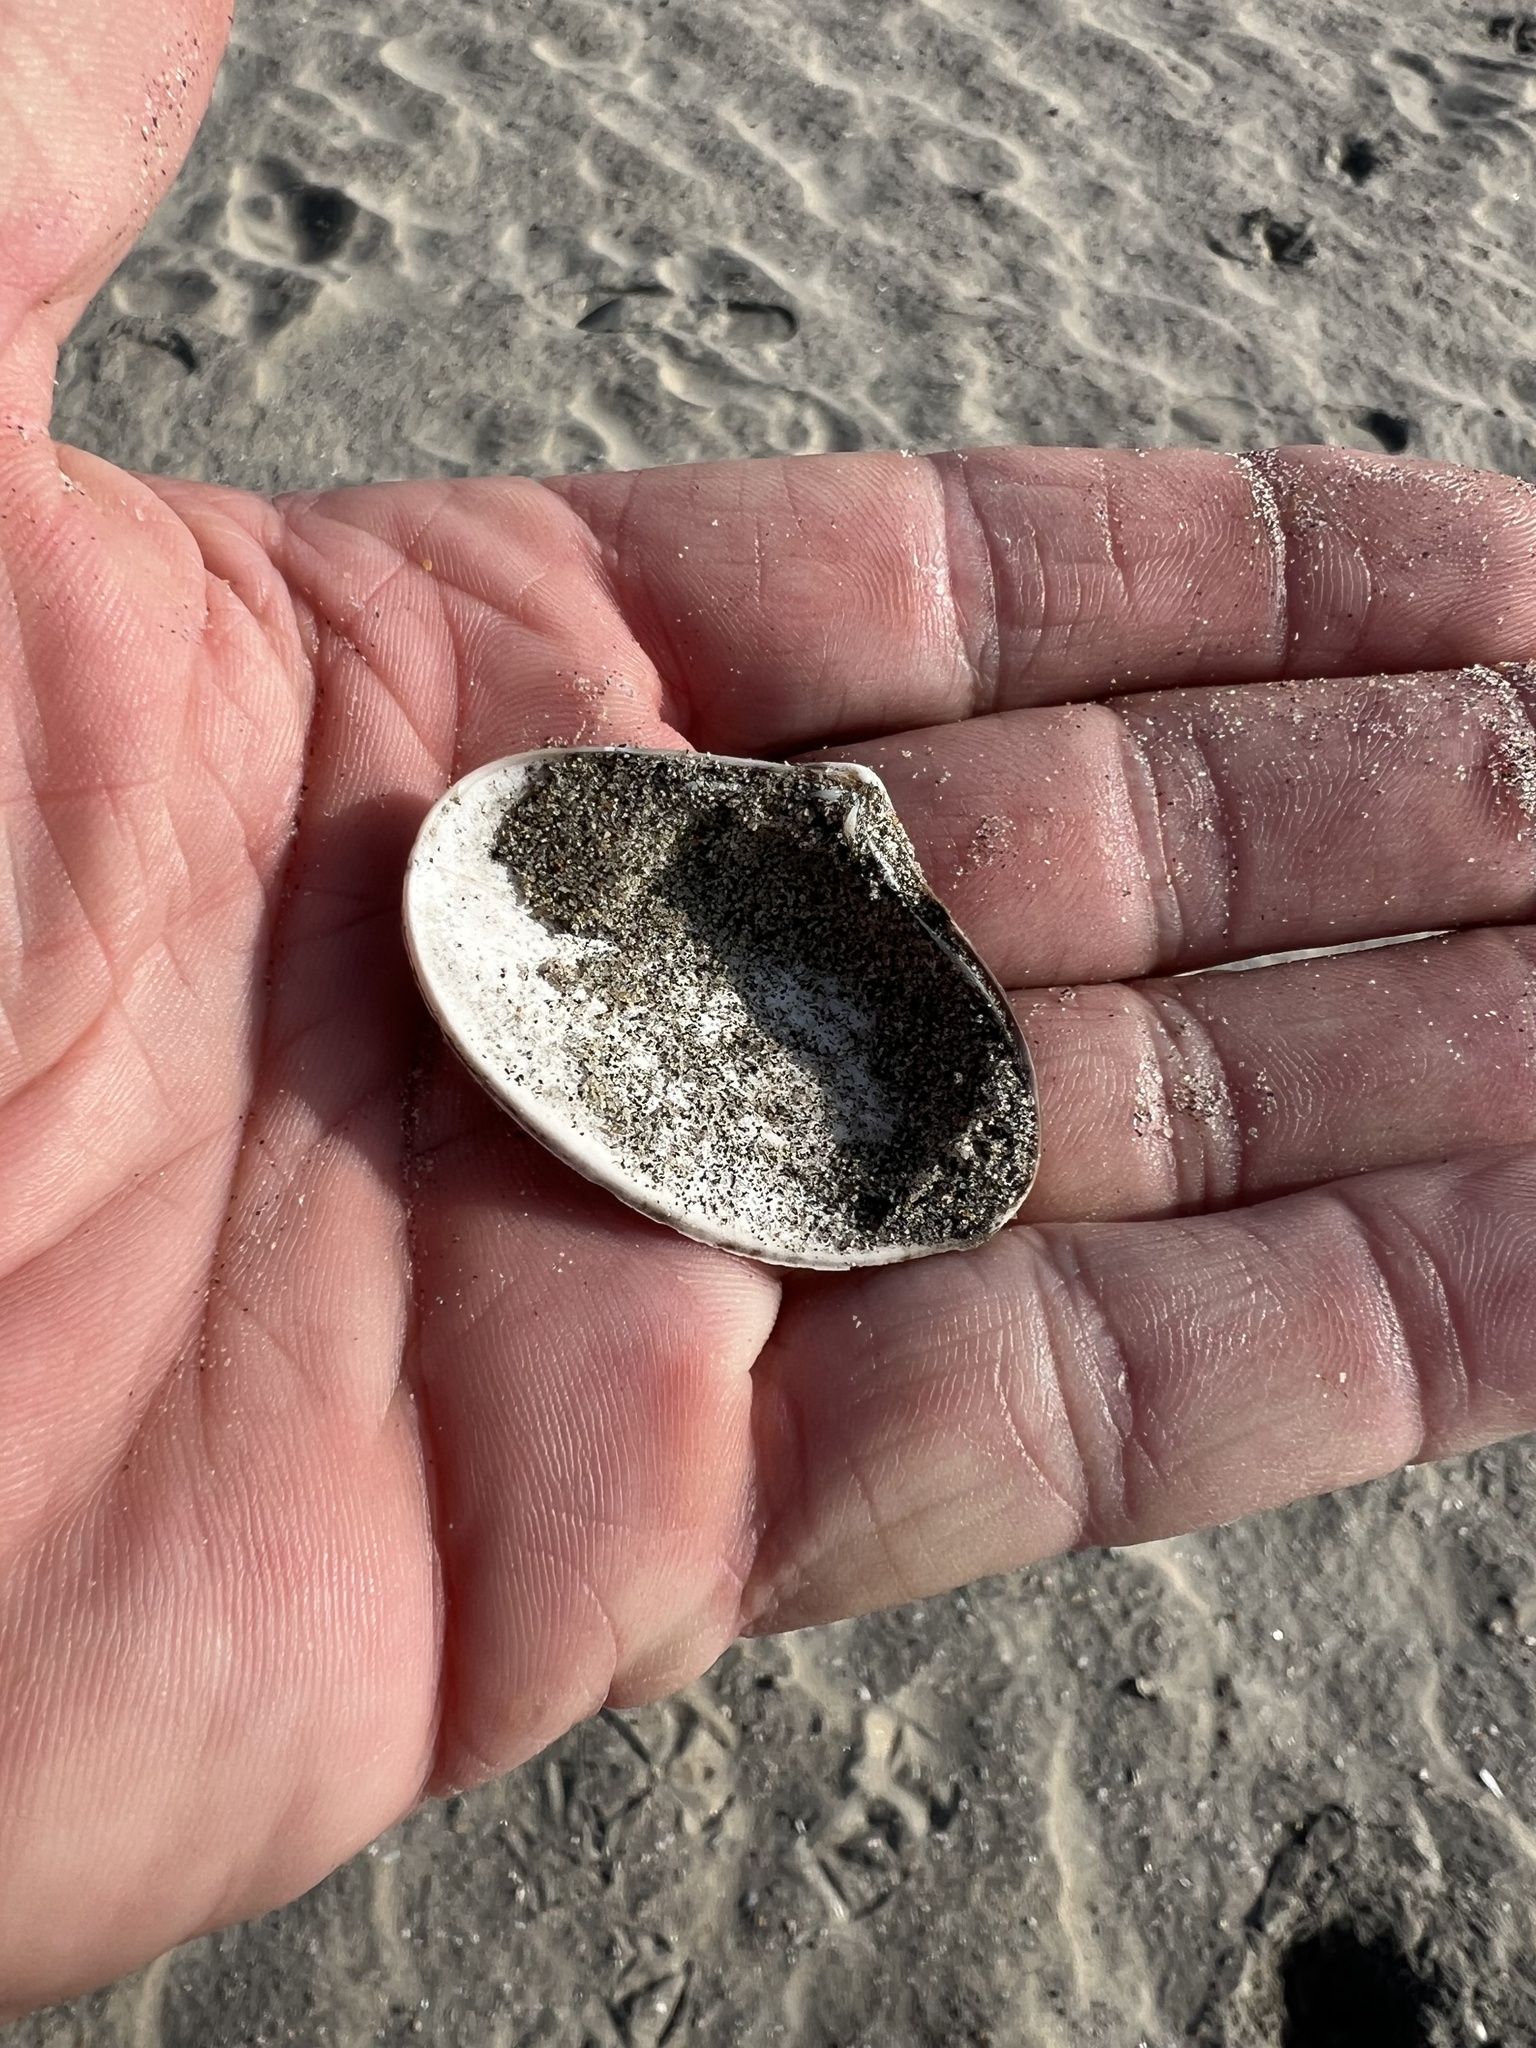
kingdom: Animalia
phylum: Mollusca
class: Bivalvia
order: Venerida
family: Mactridae
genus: Mactrotoma
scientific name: Mactrotoma californica
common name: California surfclam
